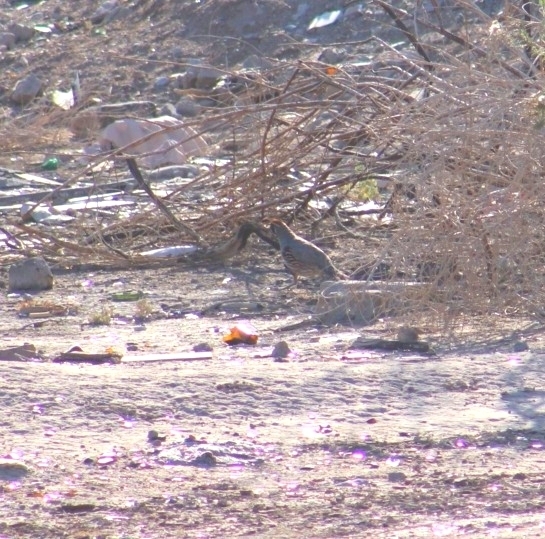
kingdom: Animalia
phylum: Chordata
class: Aves
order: Galliformes
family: Odontophoridae
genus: Callipepla
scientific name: Callipepla gambelii
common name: Gambel's quail
